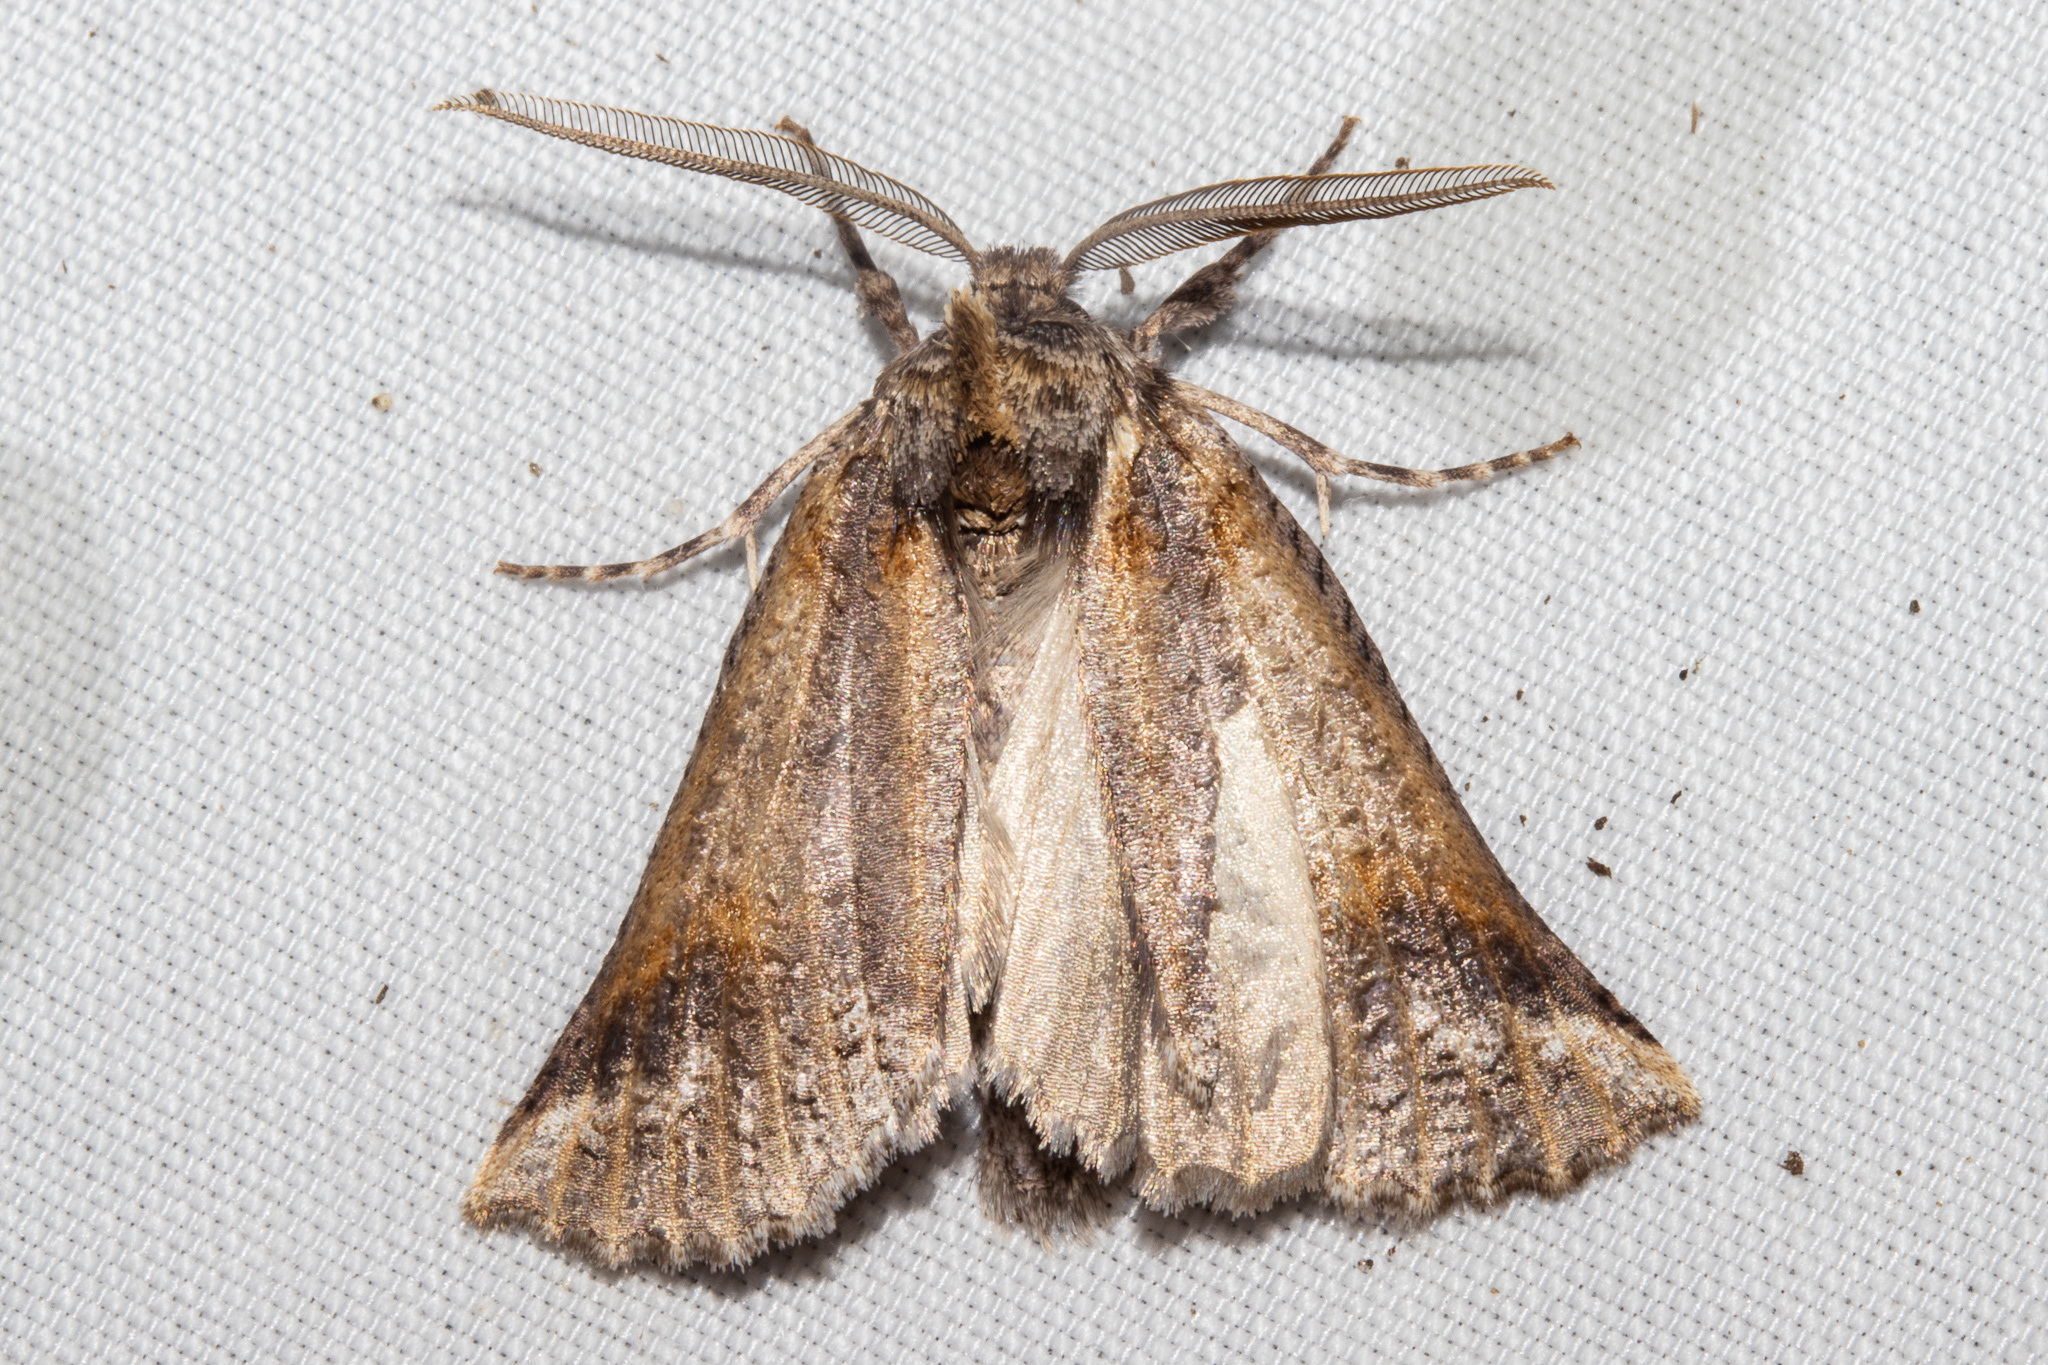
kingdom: Animalia
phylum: Arthropoda
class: Insecta
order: Lepidoptera
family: Geometridae
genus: Declana
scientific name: Declana
